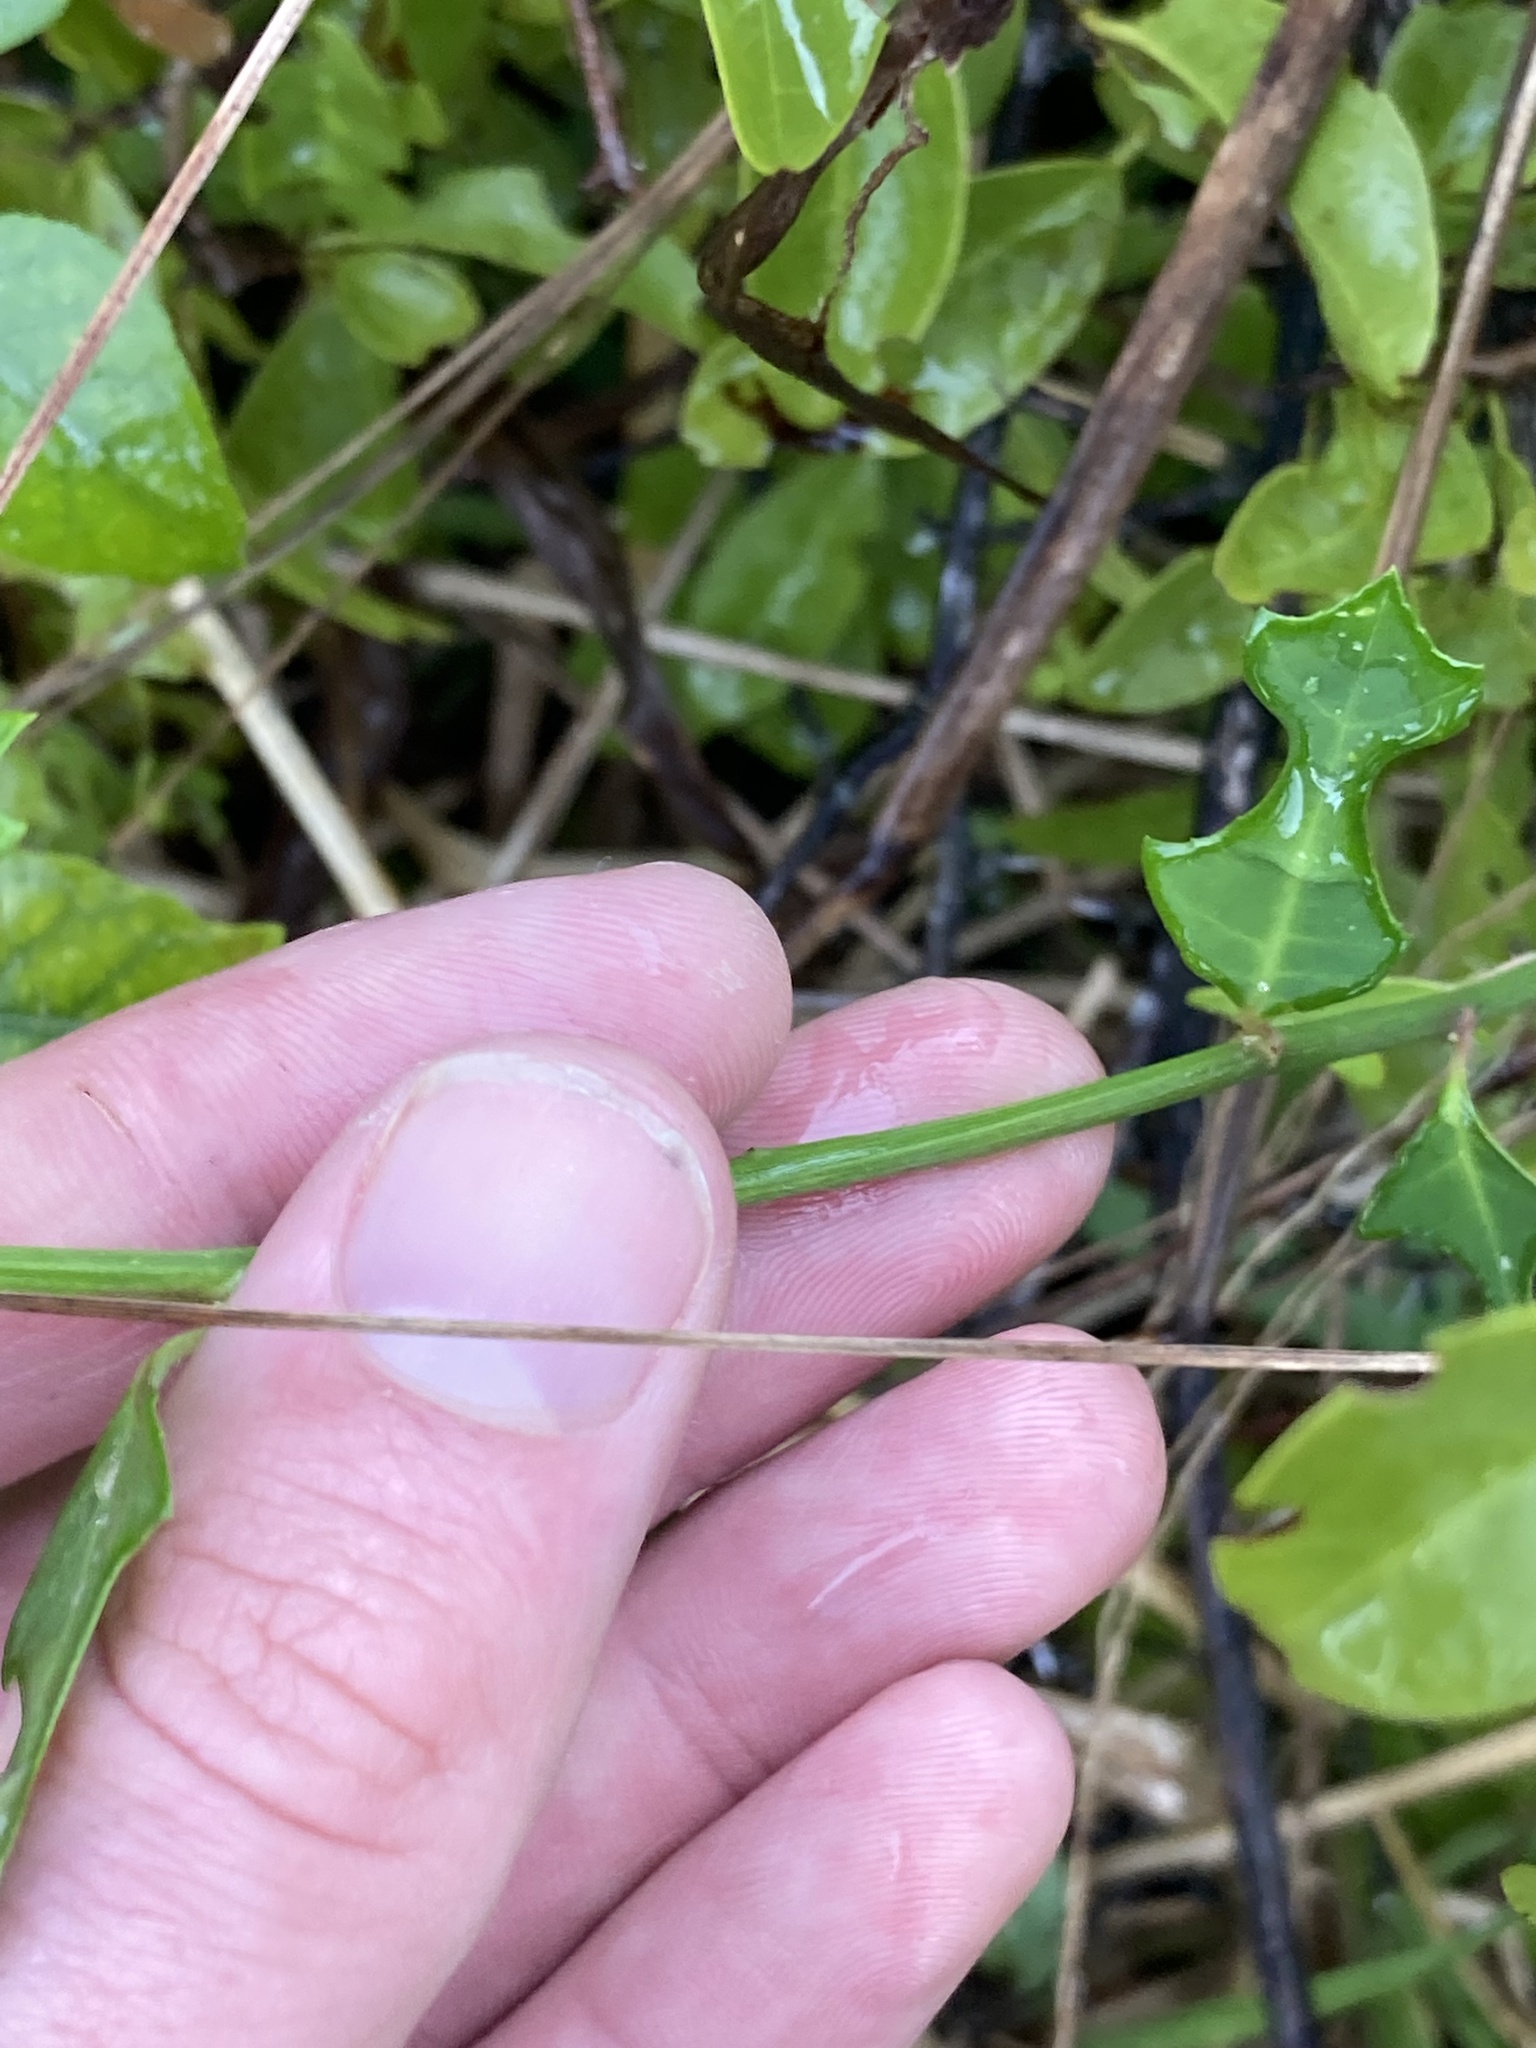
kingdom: Plantae
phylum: Tracheophyta
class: Magnoliopsida
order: Malpighiales
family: Euphorbiaceae
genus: Euphorbia
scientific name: Euphorbia heterophylla
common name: Mexican fireplant
